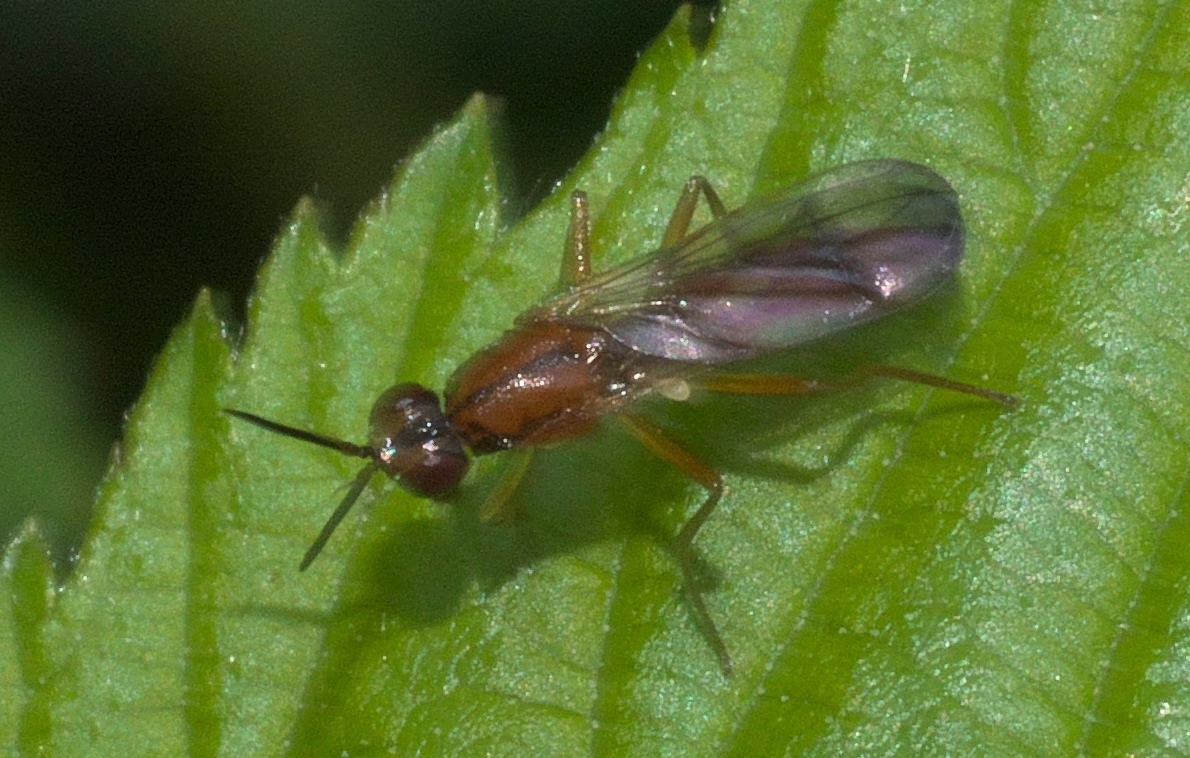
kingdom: Animalia
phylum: Arthropoda
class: Insecta
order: Diptera
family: Psilidae
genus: Loxocera
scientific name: Loxocera cylindrica
